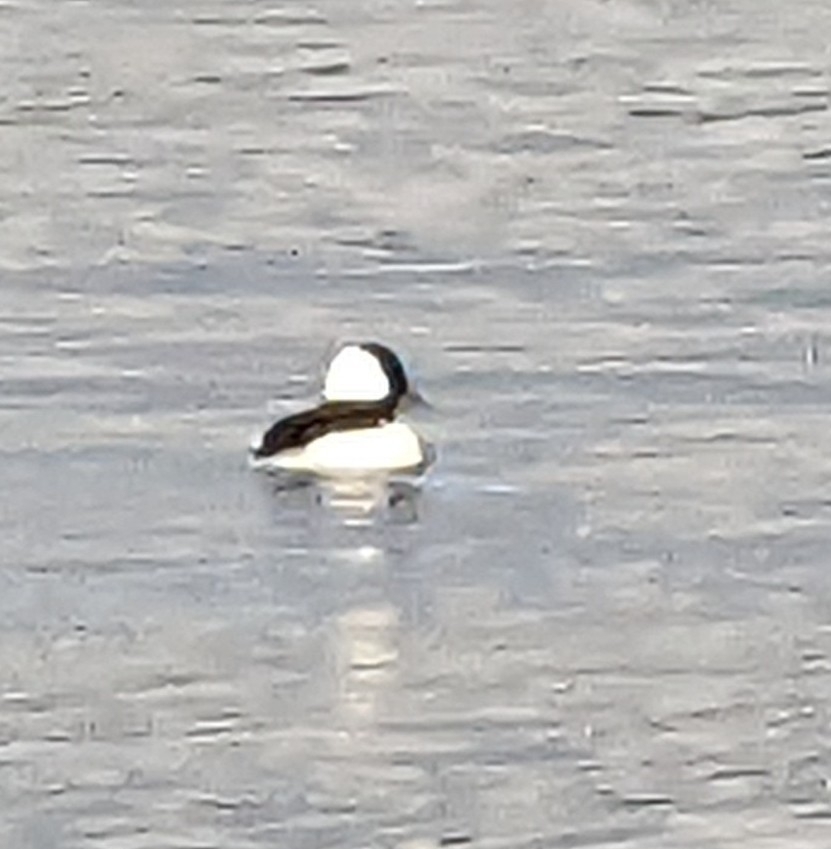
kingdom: Animalia
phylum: Chordata
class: Aves
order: Anseriformes
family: Anatidae
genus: Bucephala
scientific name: Bucephala albeola
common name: Bufflehead
